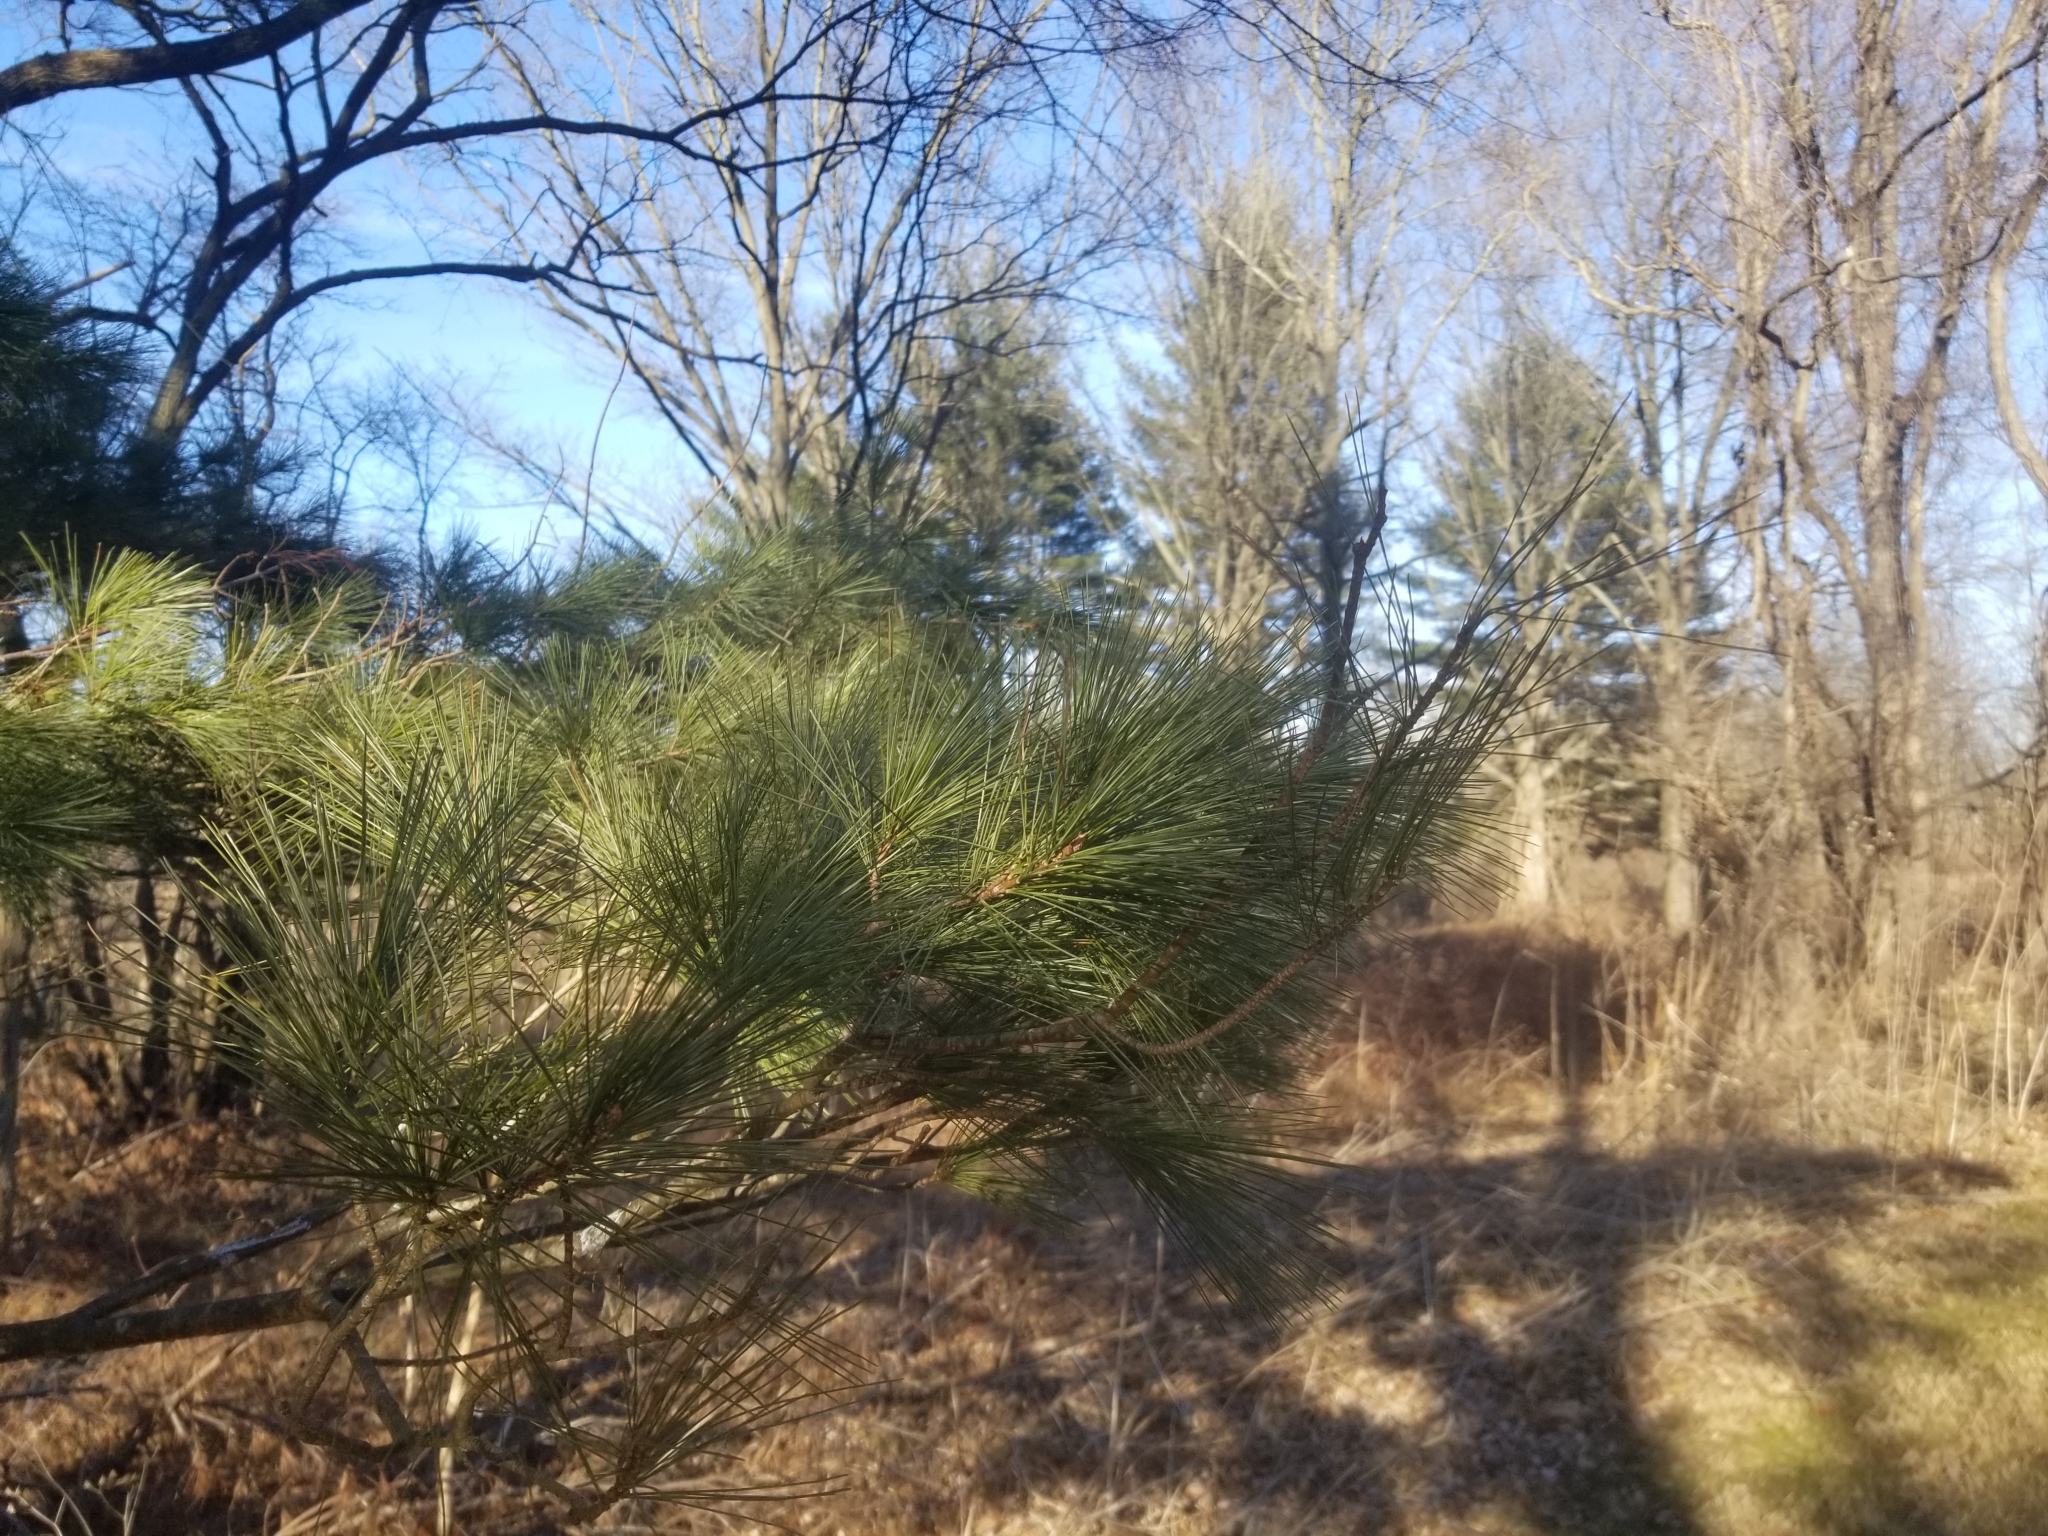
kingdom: Plantae
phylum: Tracheophyta
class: Pinopsida
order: Pinales
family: Pinaceae
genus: Pinus
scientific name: Pinus strobus
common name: Weymouth pine
